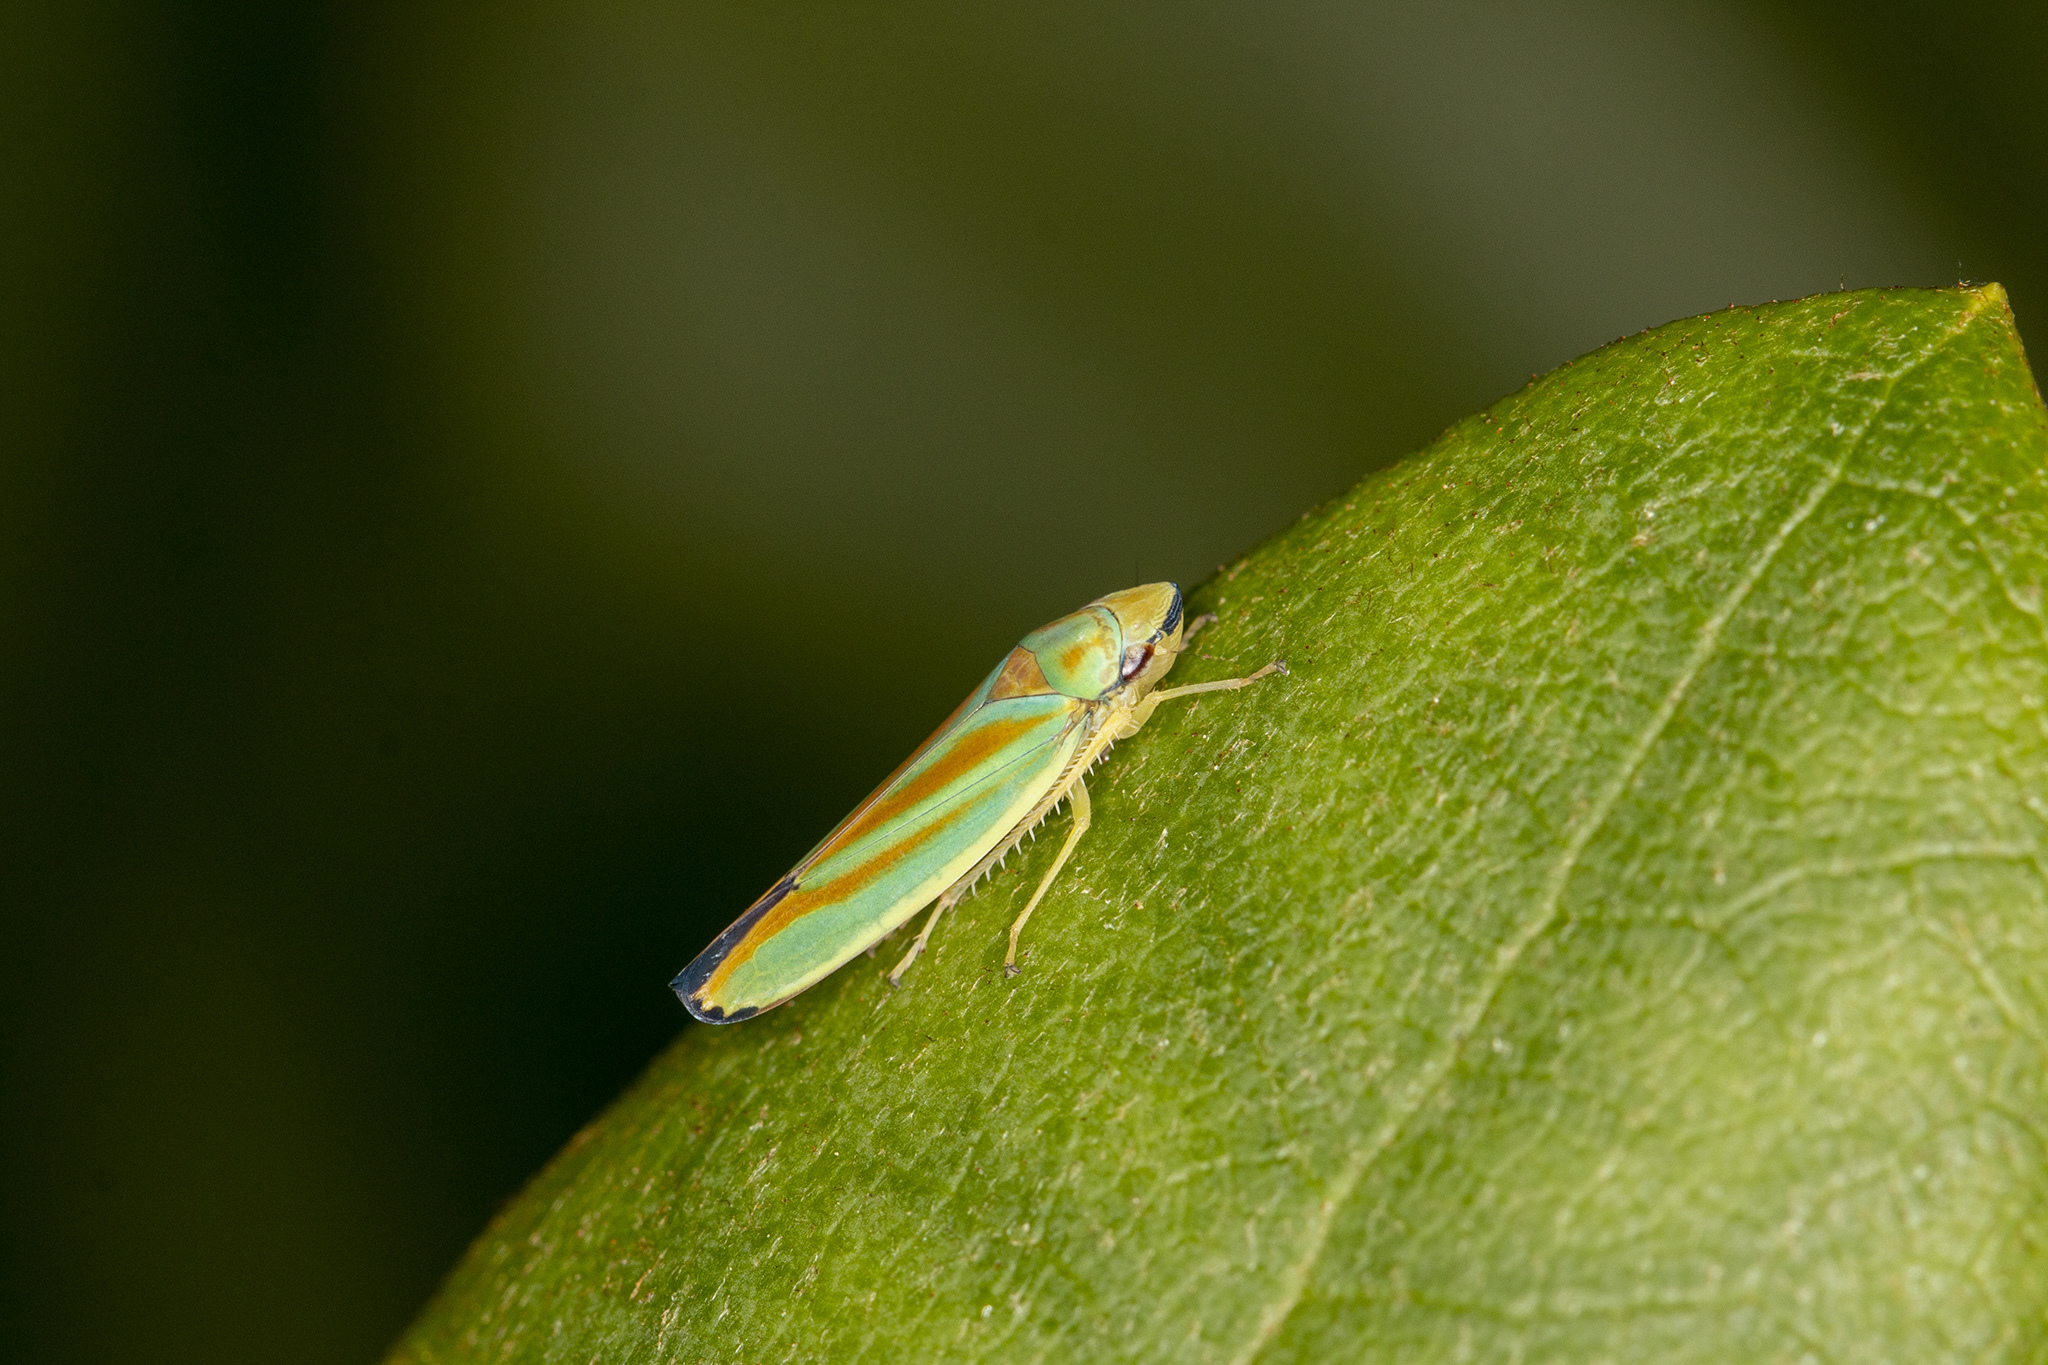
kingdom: Animalia
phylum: Arthropoda
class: Insecta
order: Hemiptera
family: Cicadellidae
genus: Graphocephala
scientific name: Graphocephala fennahi
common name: Rhododendron leafhopper
